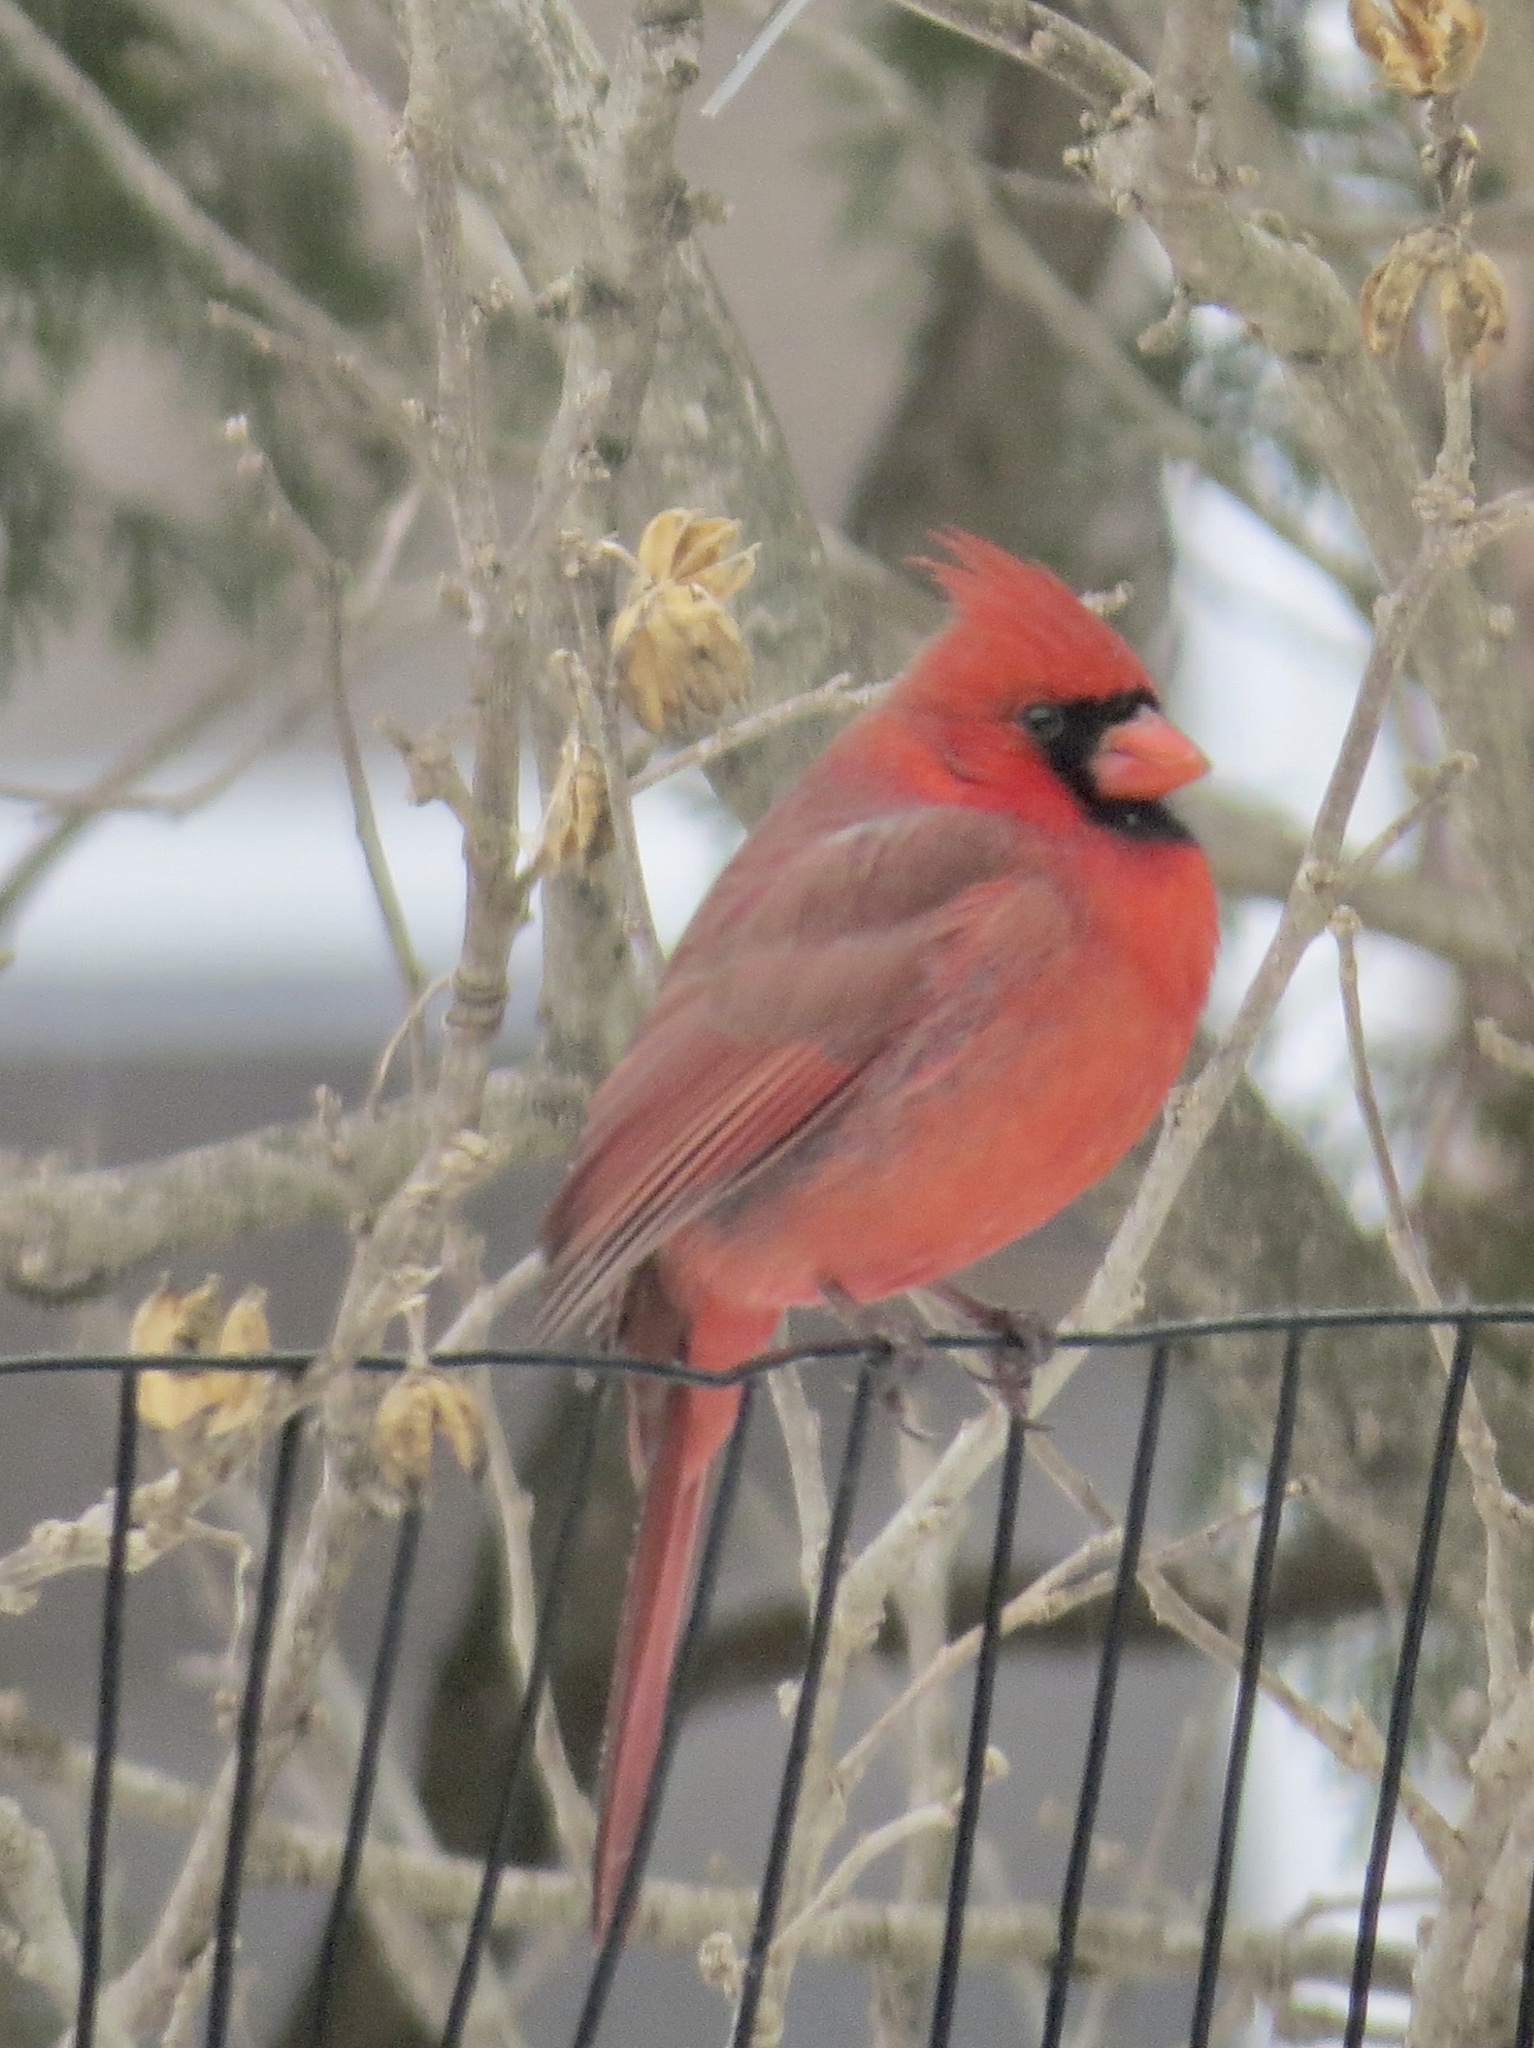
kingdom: Animalia
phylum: Chordata
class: Aves
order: Passeriformes
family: Cardinalidae
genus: Cardinalis
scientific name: Cardinalis cardinalis
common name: Northern cardinal
